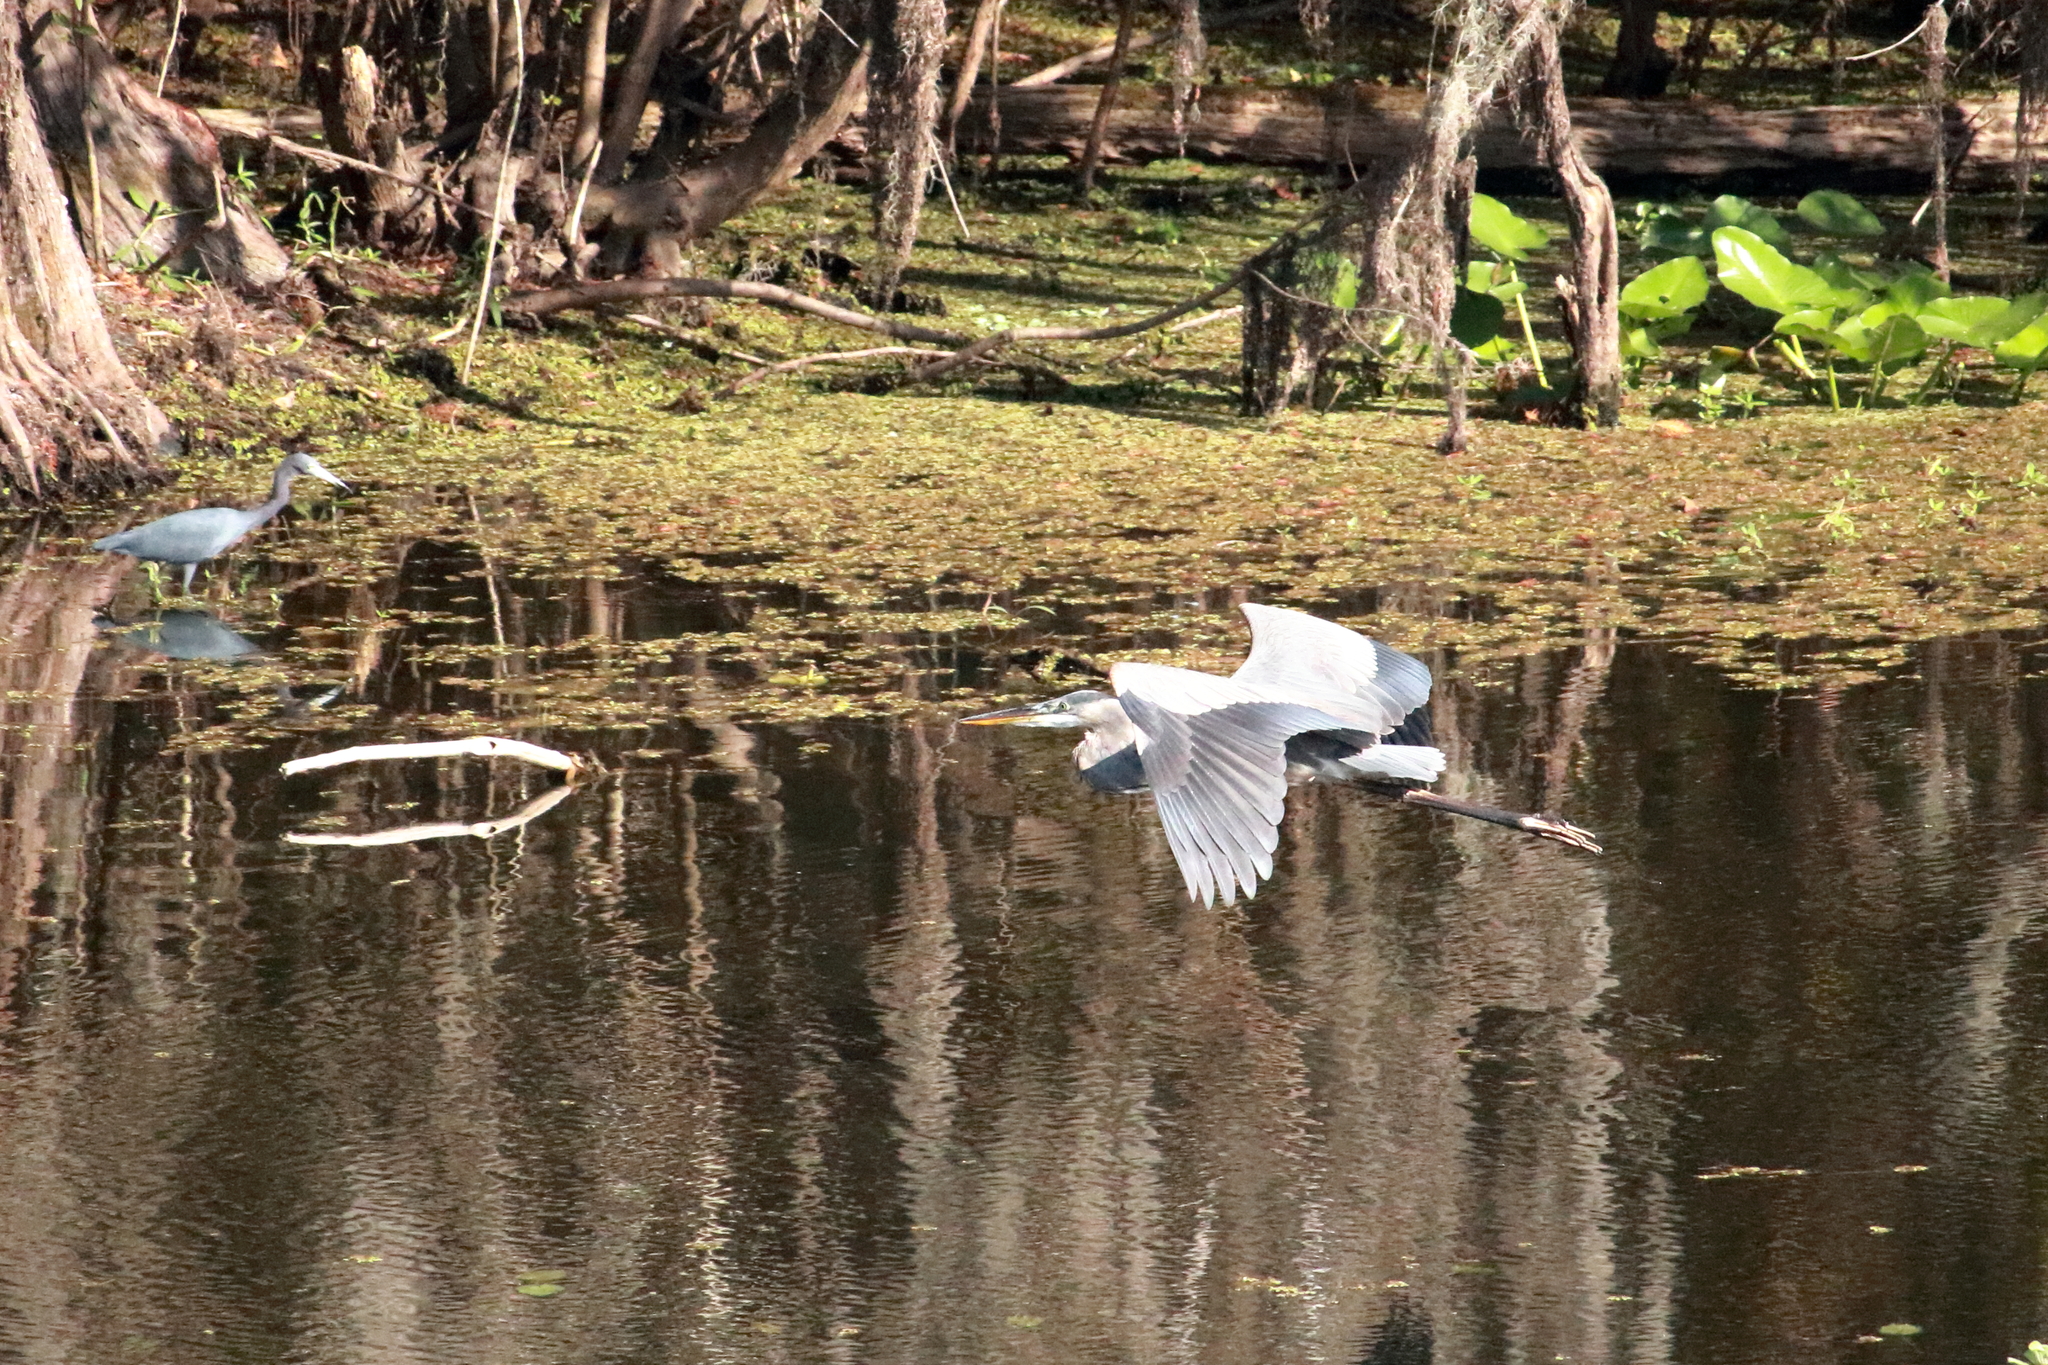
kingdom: Animalia
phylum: Chordata
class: Aves
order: Pelecaniformes
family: Ardeidae
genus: Ardea
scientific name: Ardea herodias
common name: Great blue heron
